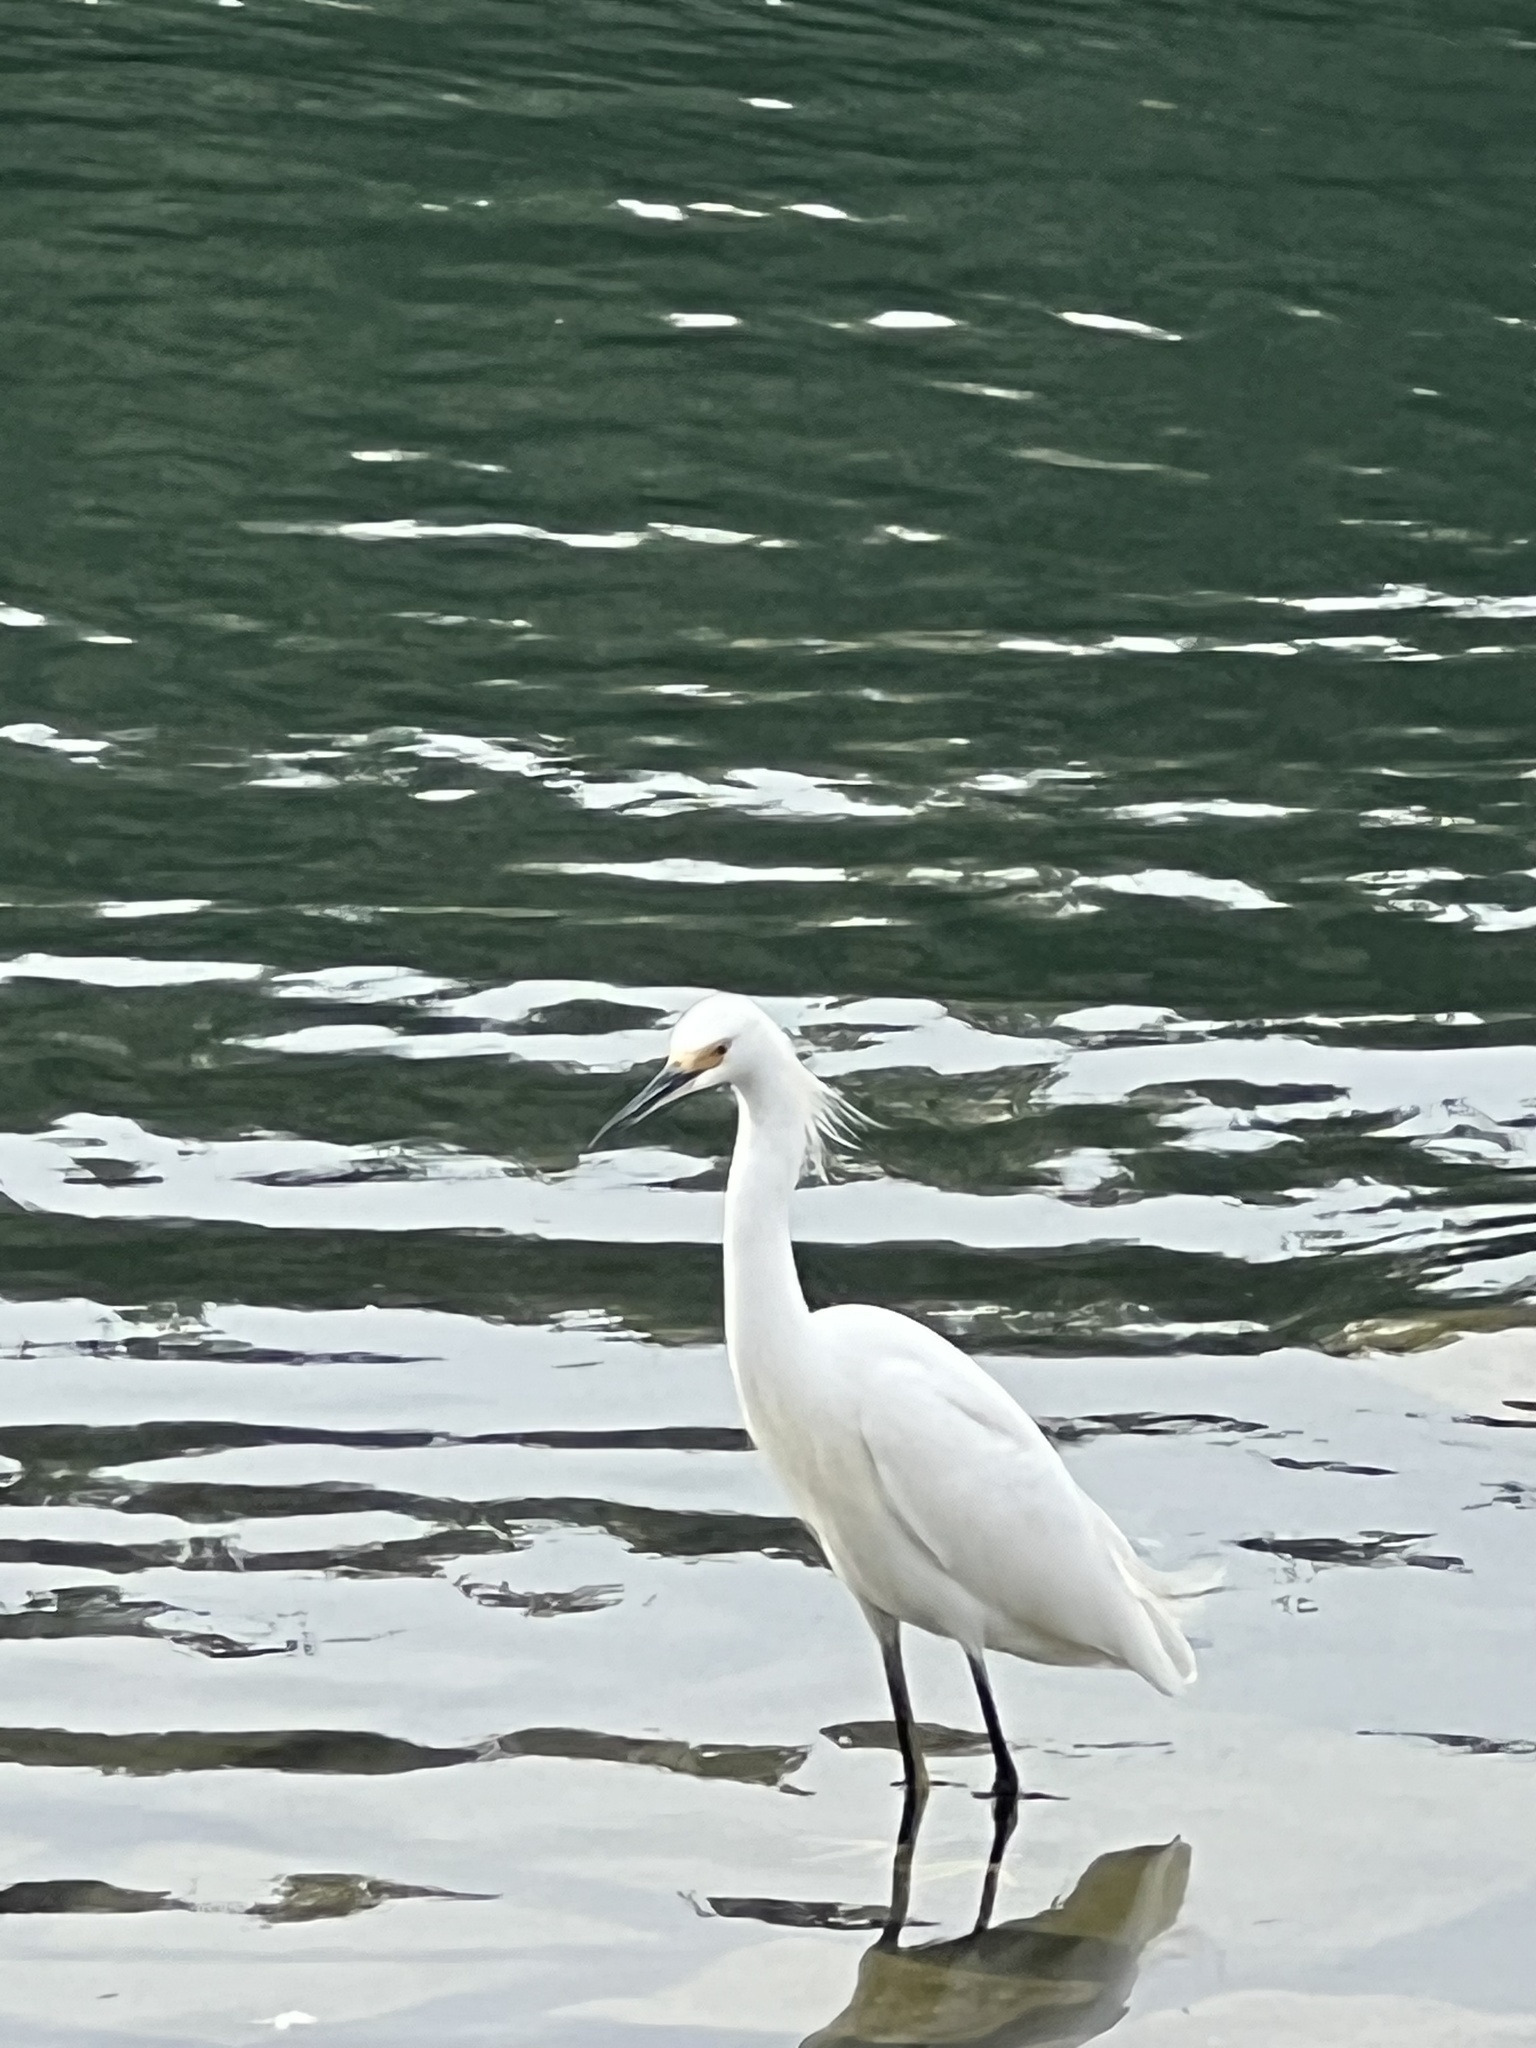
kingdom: Animalia
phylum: Chordata
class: Aves
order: Pelecaniformes
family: Ardeidae
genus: Egretta
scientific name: Egretta thula
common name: Snowy egret
